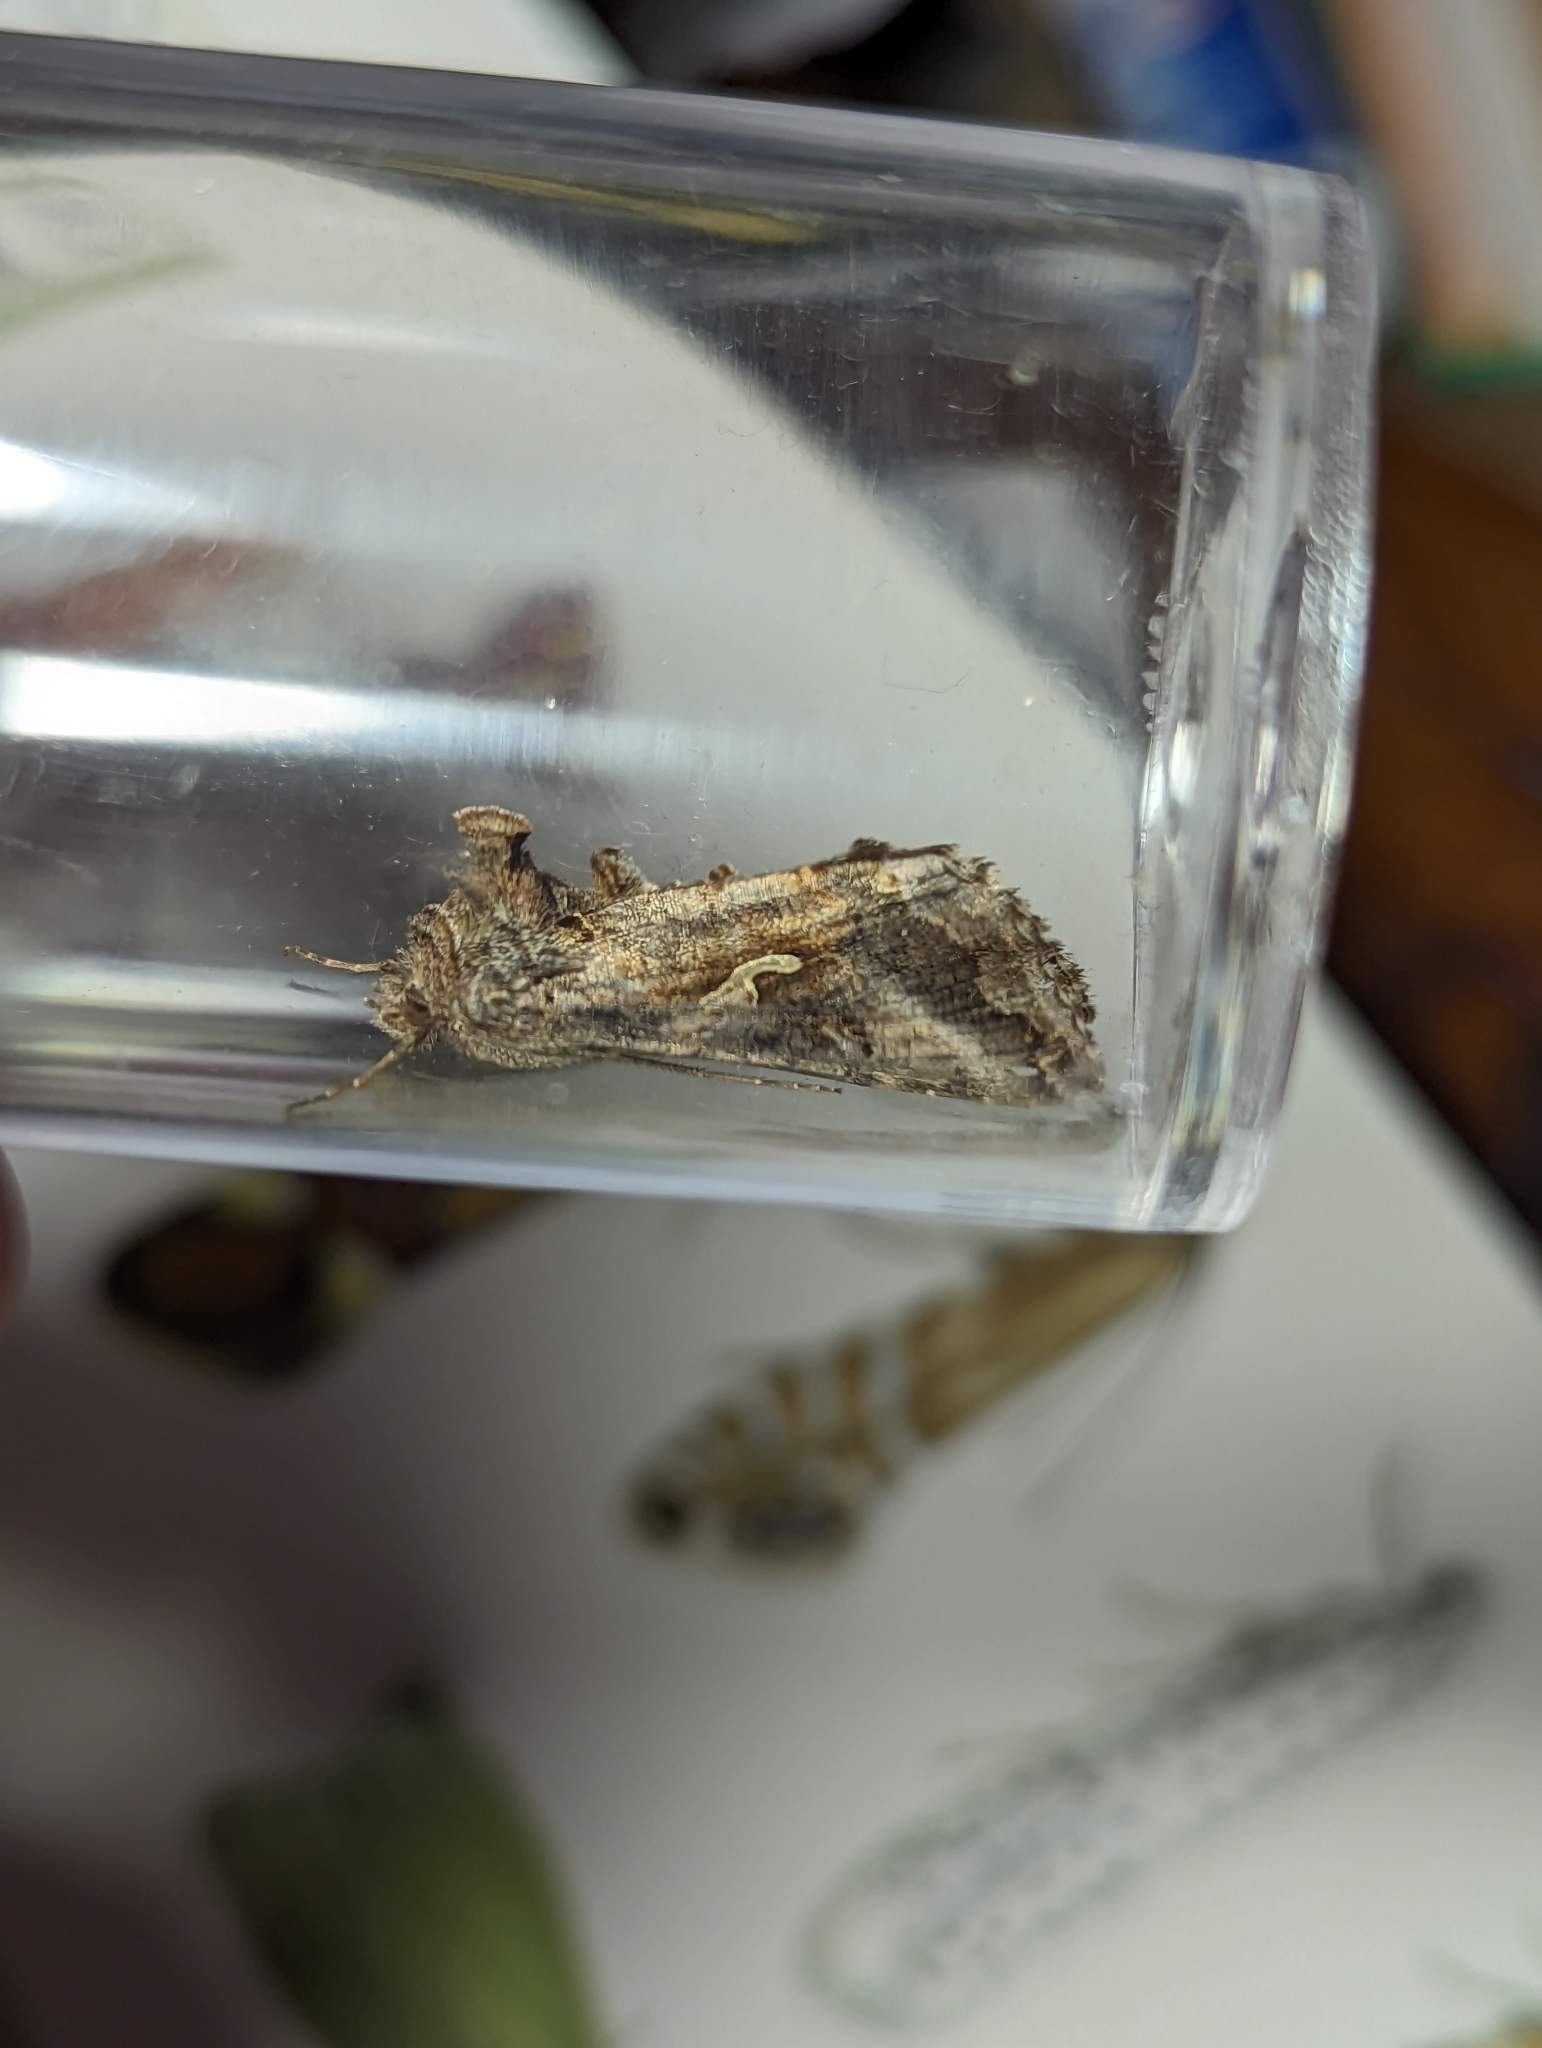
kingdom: Animalia
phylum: Arthropoda
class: Insecta
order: Lepidoptera
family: Noctuidae
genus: Autographa
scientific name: Autographa gamma
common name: Silver y
